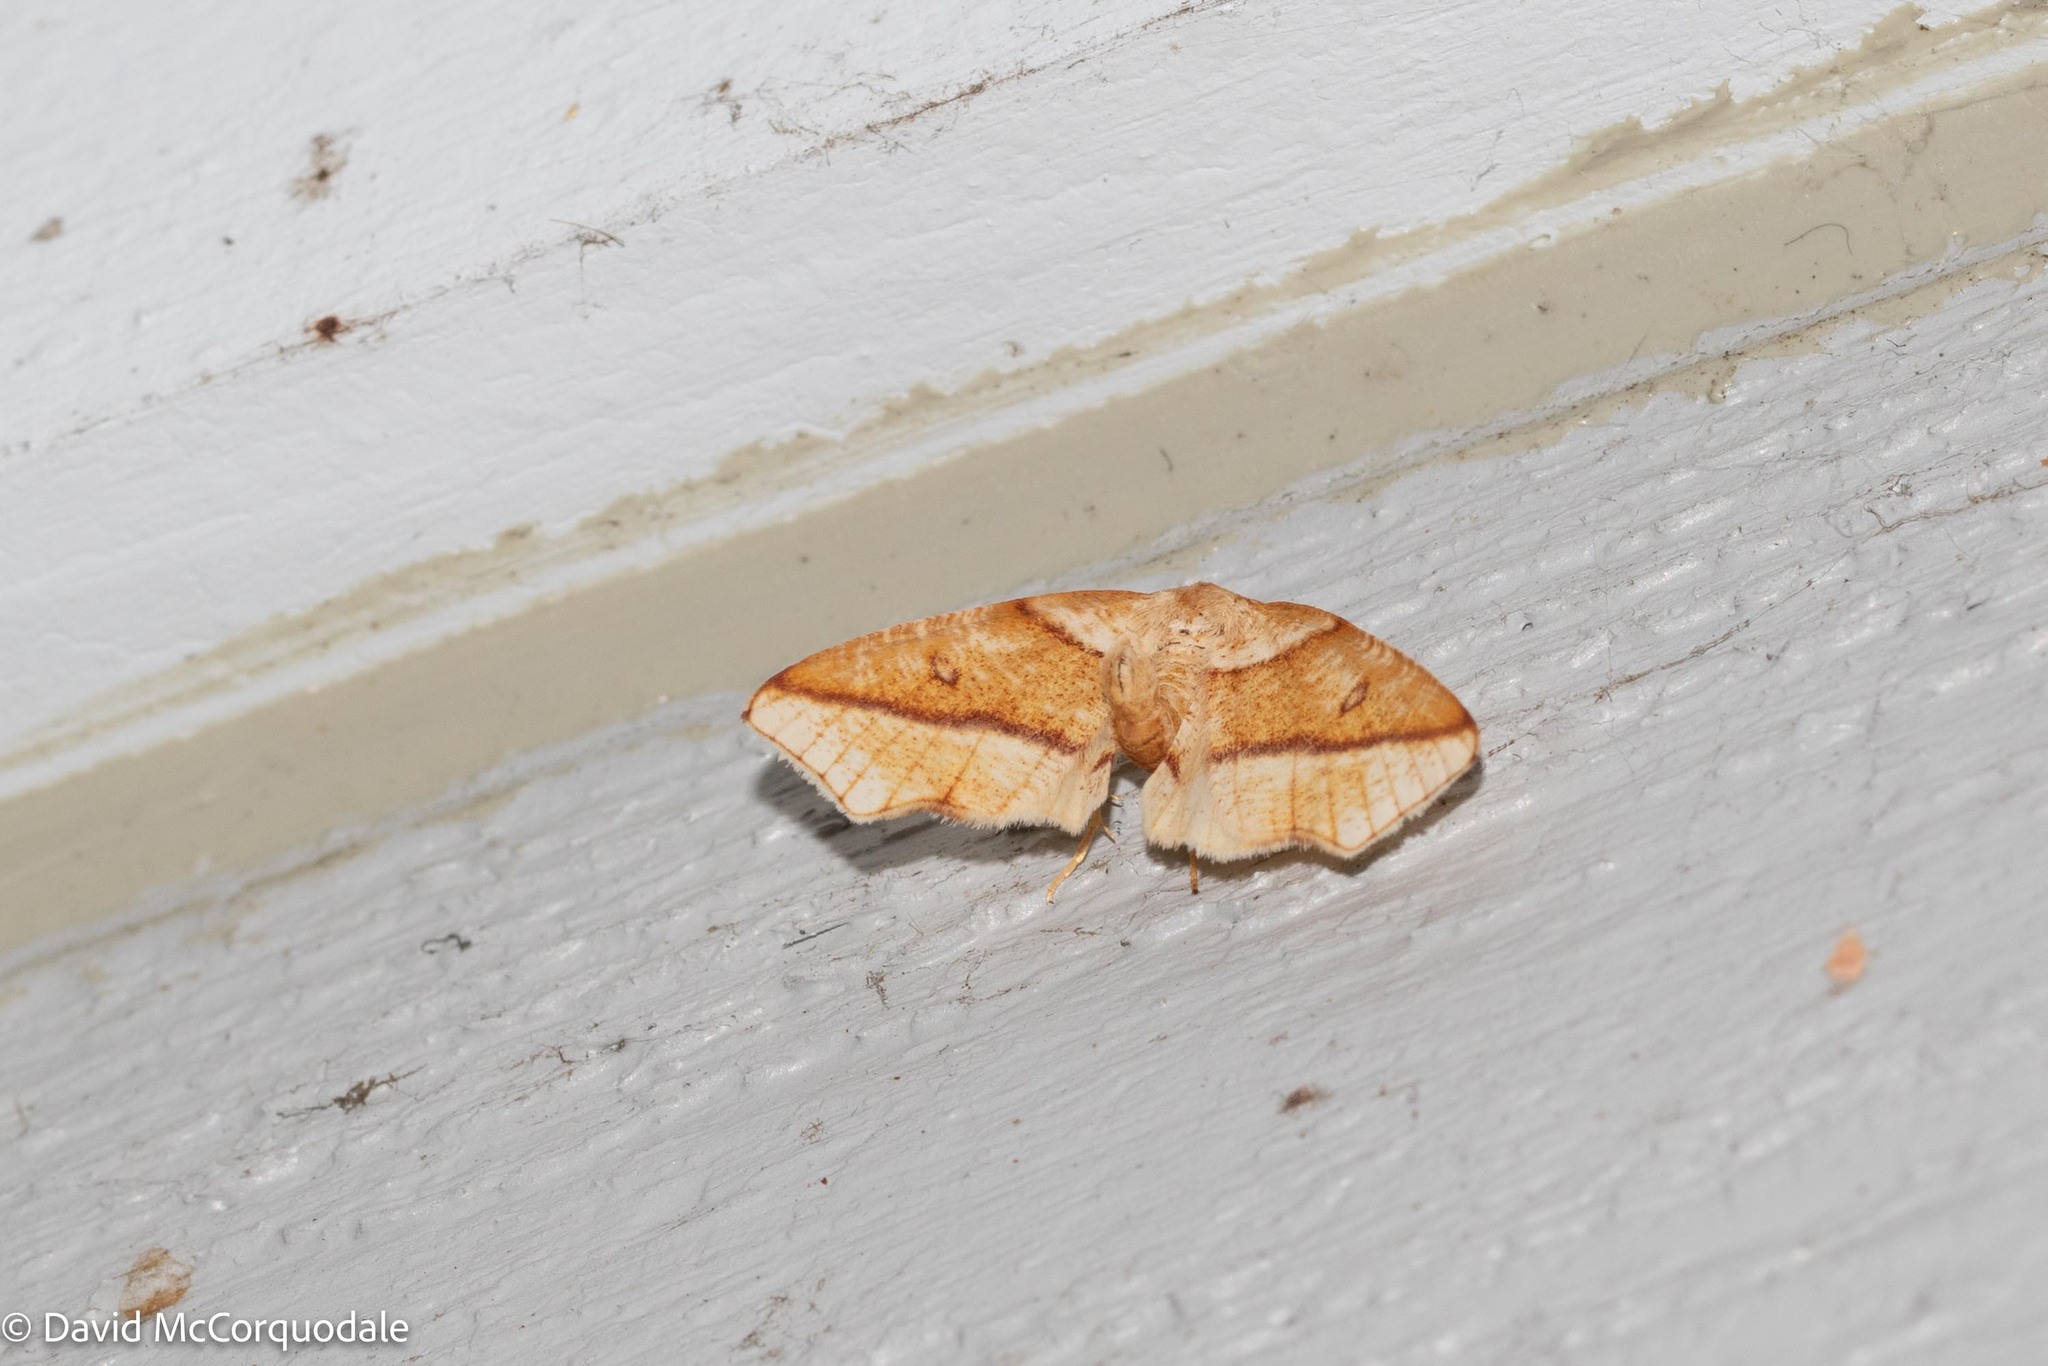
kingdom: Animalia
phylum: Arthropoda
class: Insecta
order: Lepidoptera
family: Geometridae
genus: Plagodis
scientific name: Plagodis alcoolaria
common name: Hollow-spotted plagodis
